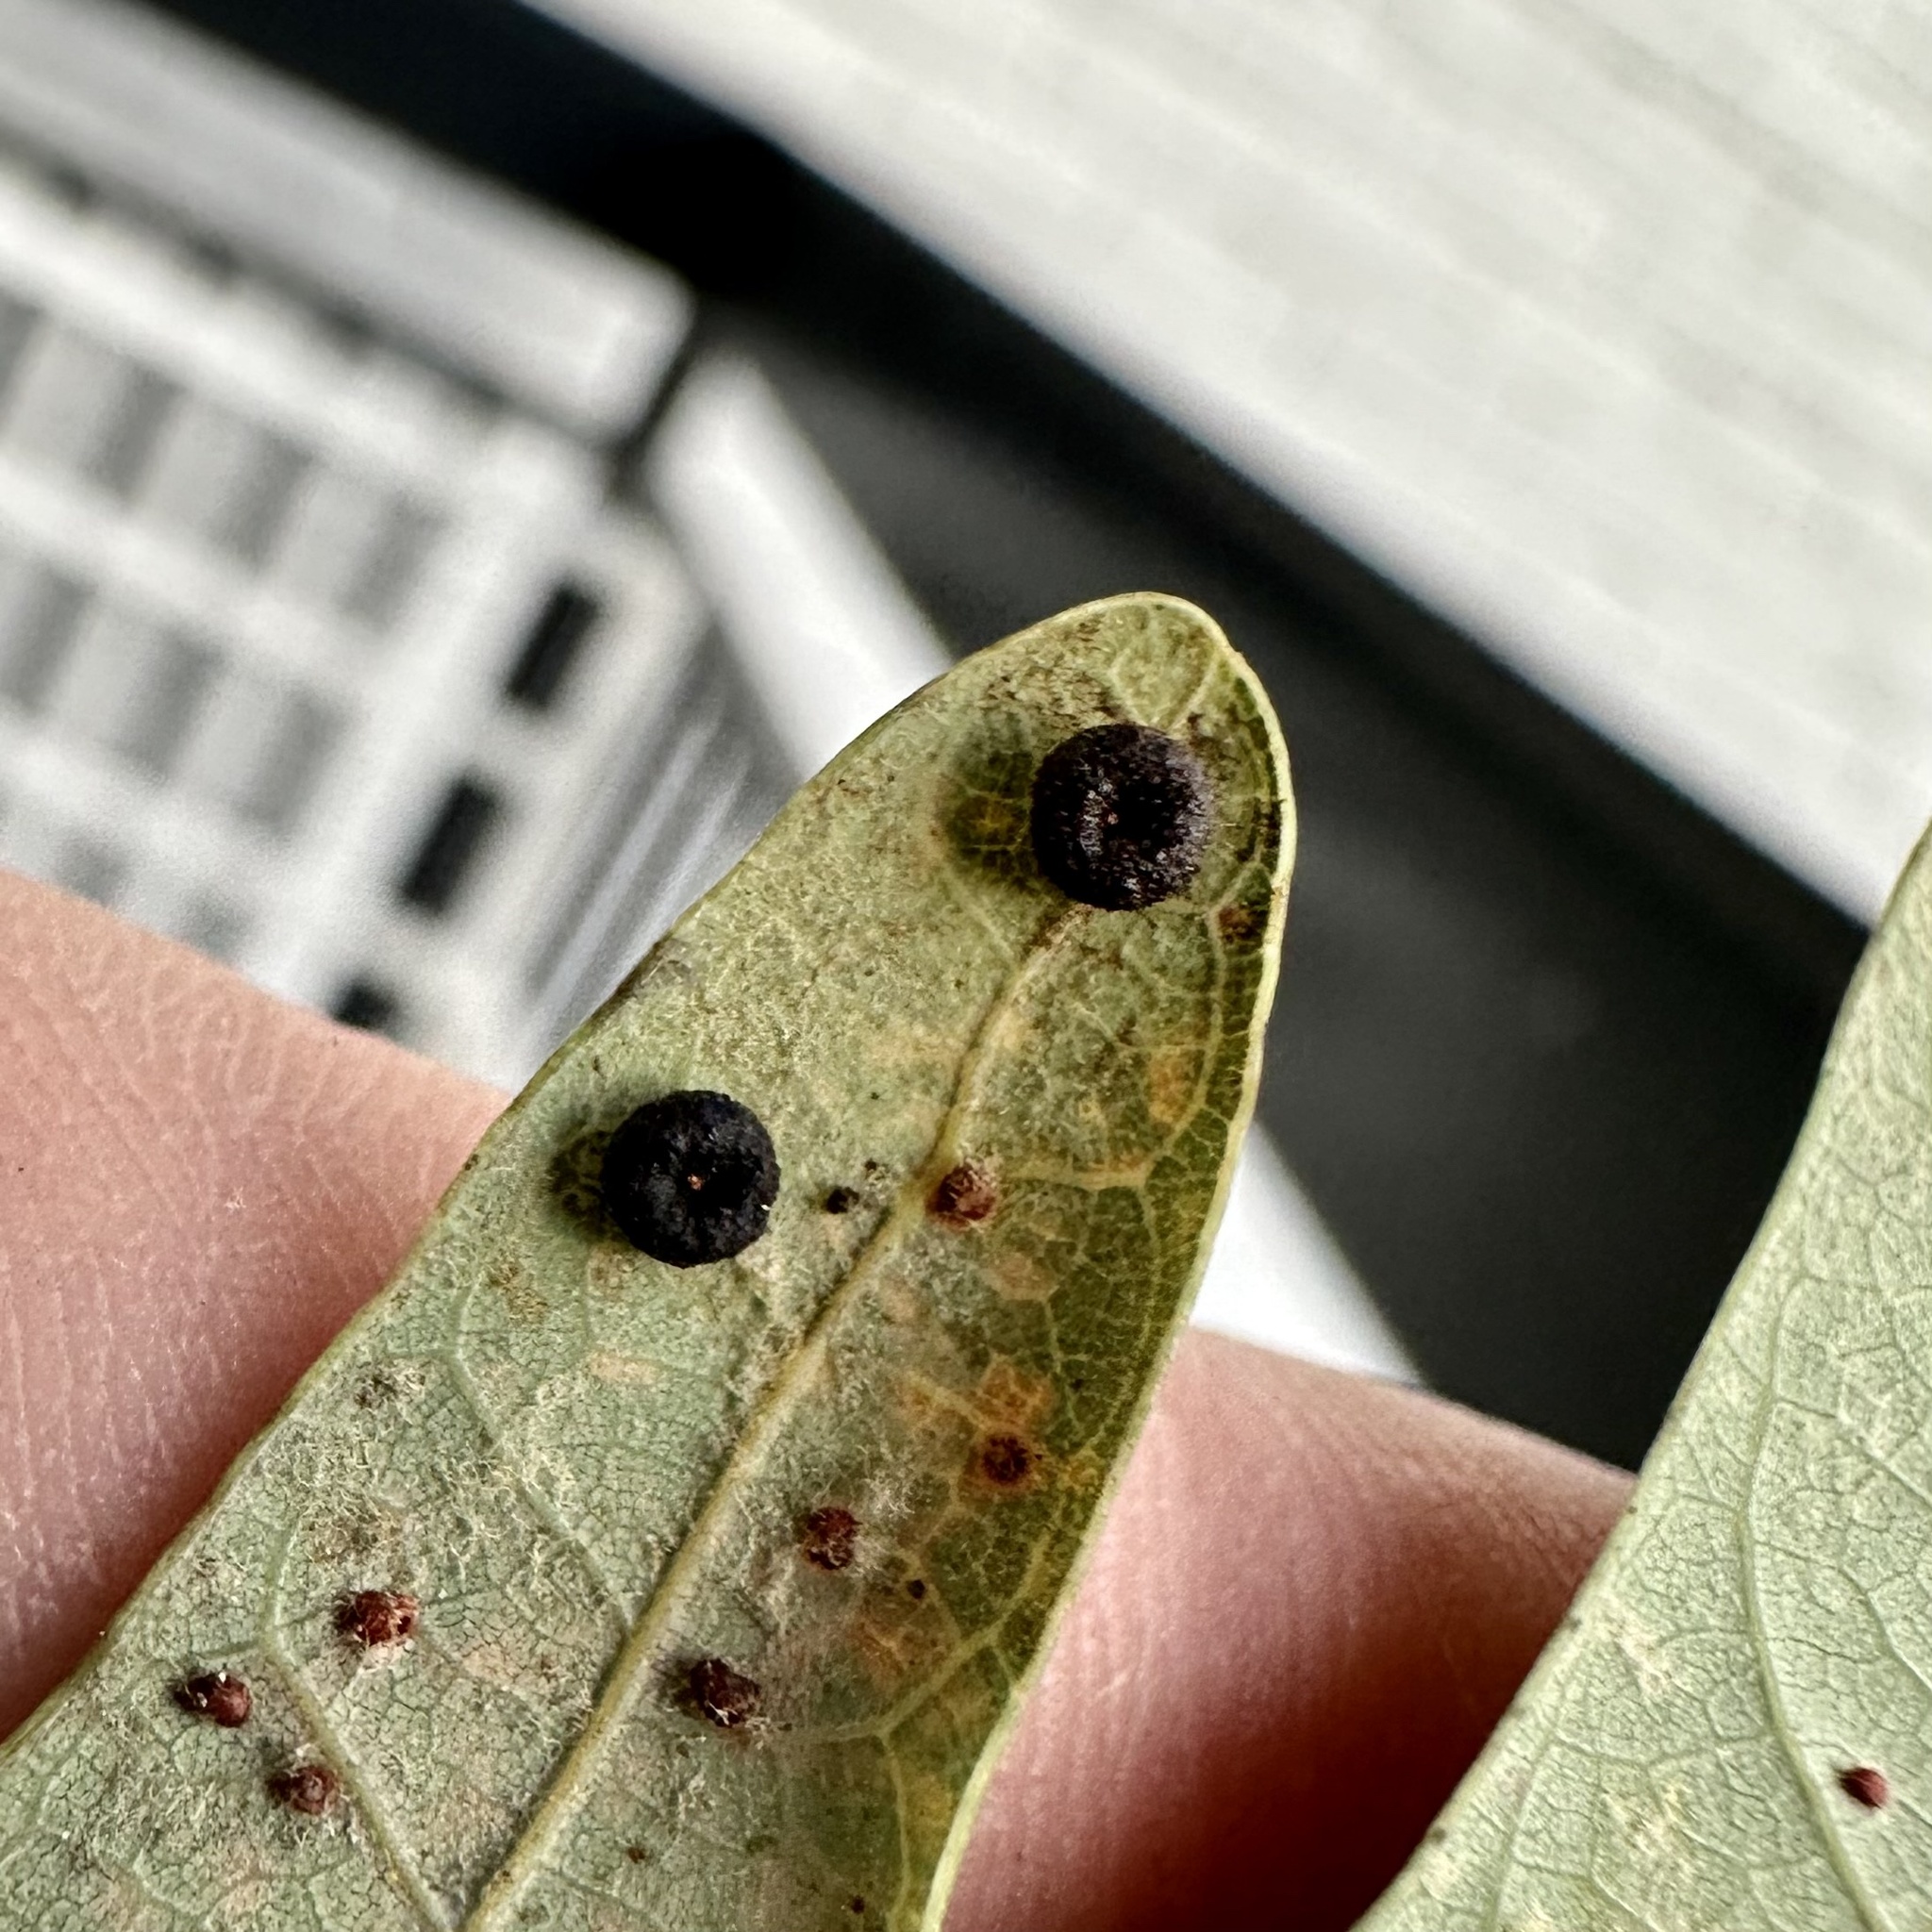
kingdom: Animalia
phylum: Arthropoda
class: Insecta
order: Hymenoptera
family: Cynipidae
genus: Andricus
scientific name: Andricus
